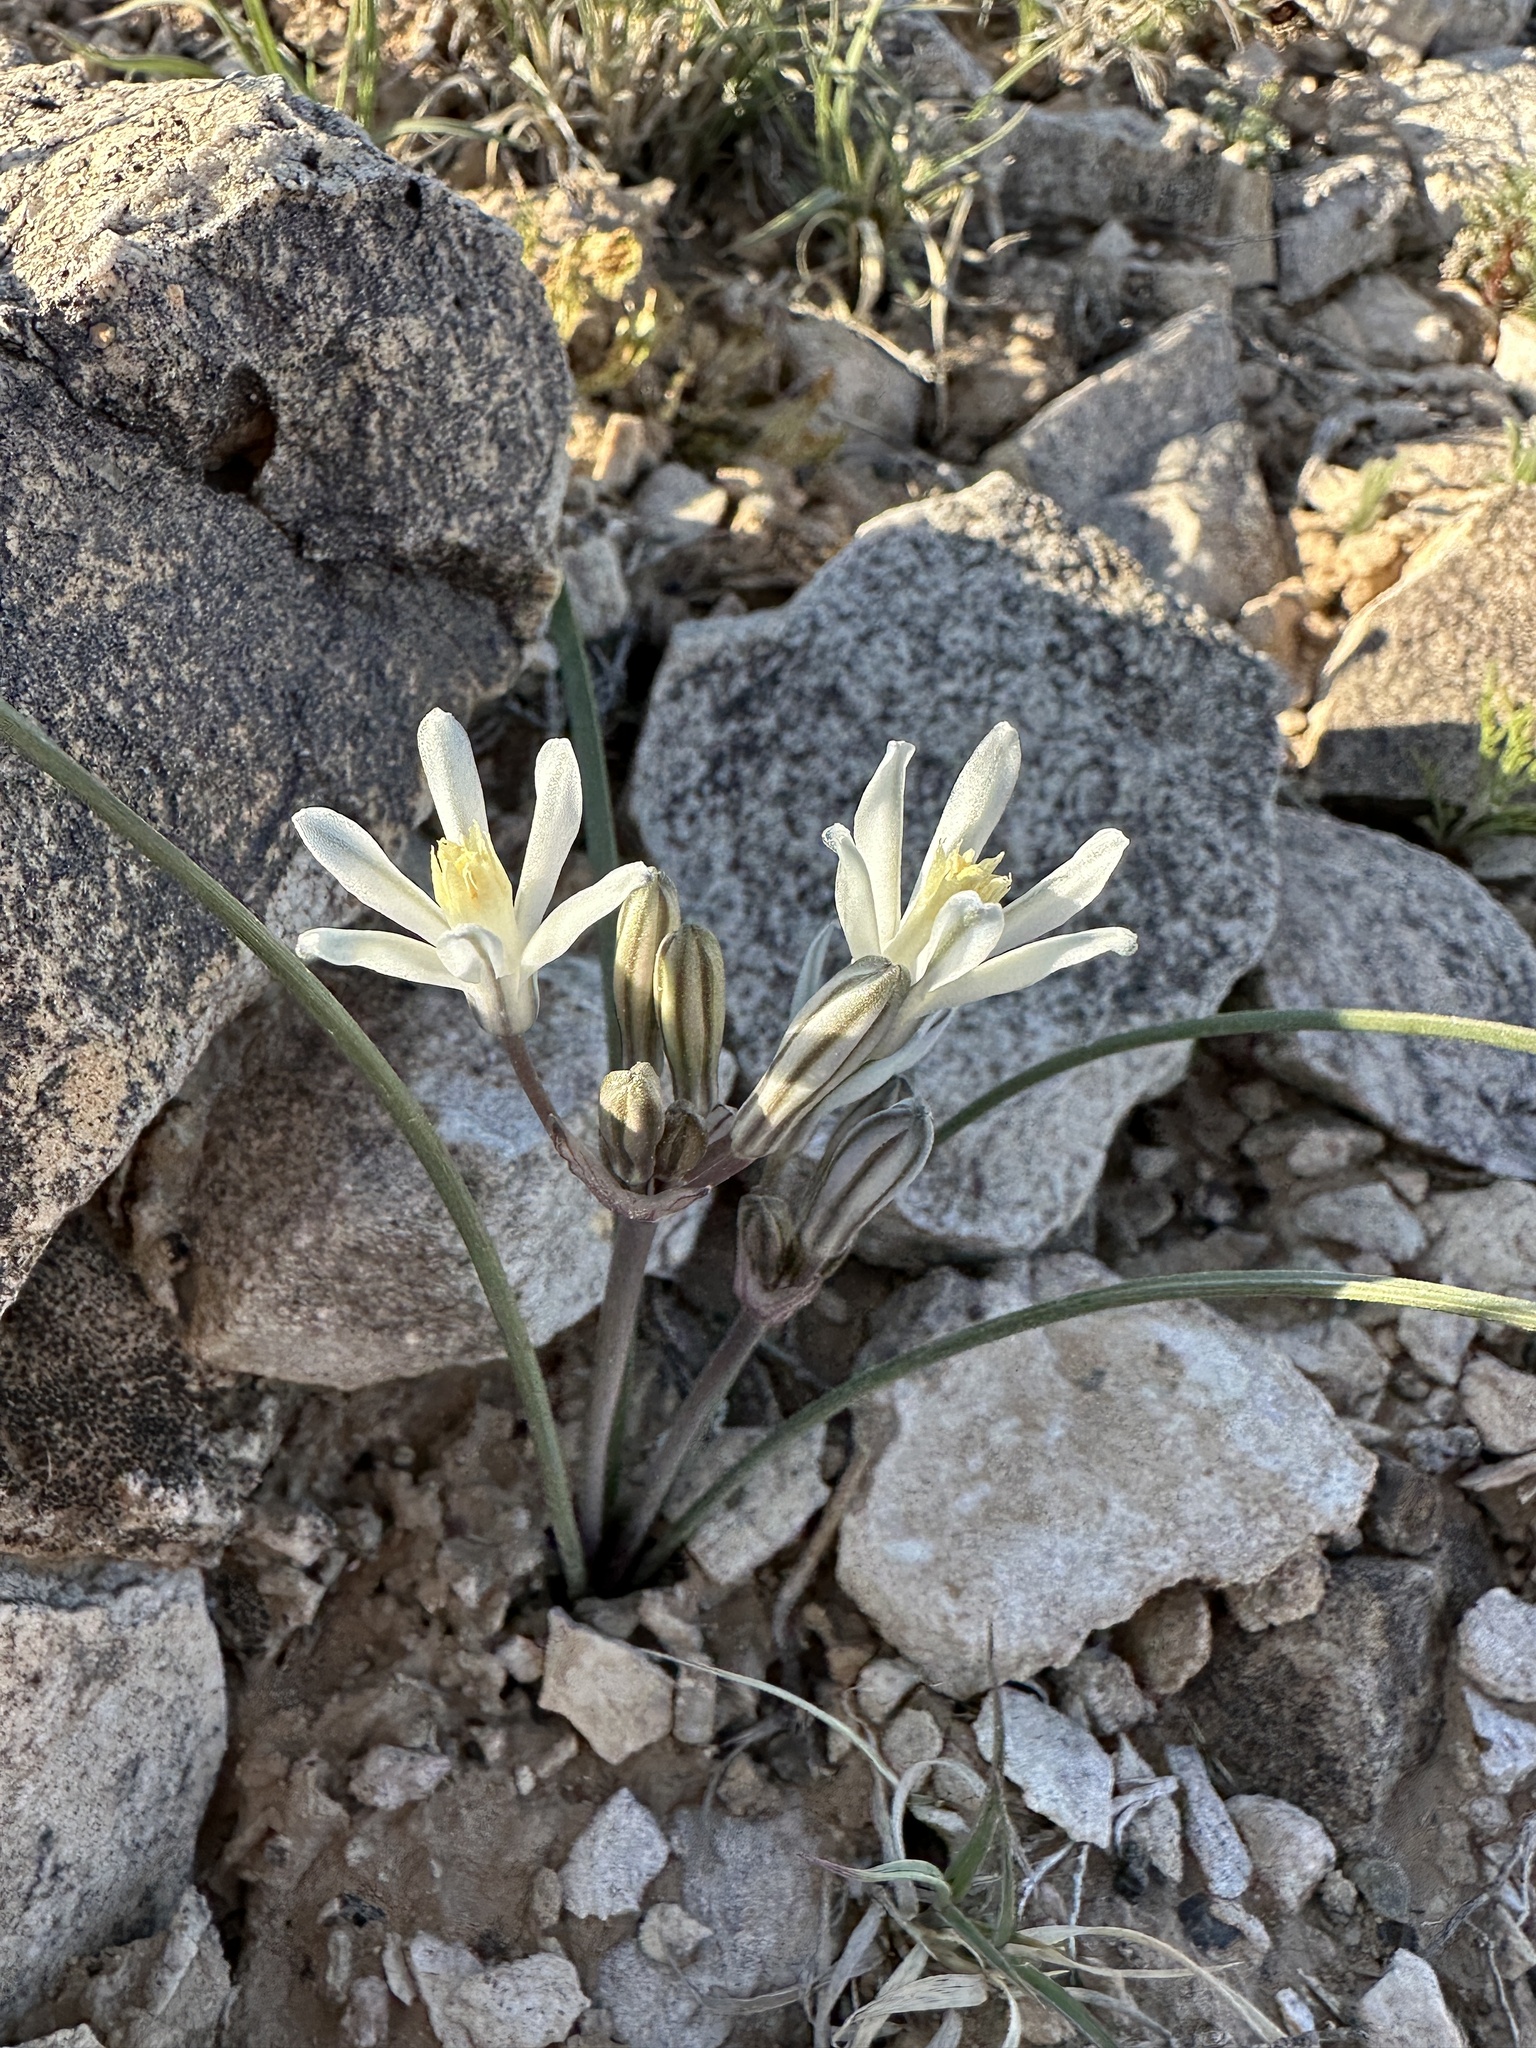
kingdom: Plantae
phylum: Tracheophyta
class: Liliopsida
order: Asparagales
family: Asparagaceae
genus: Androstephium
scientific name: Androstephium breviflorum
